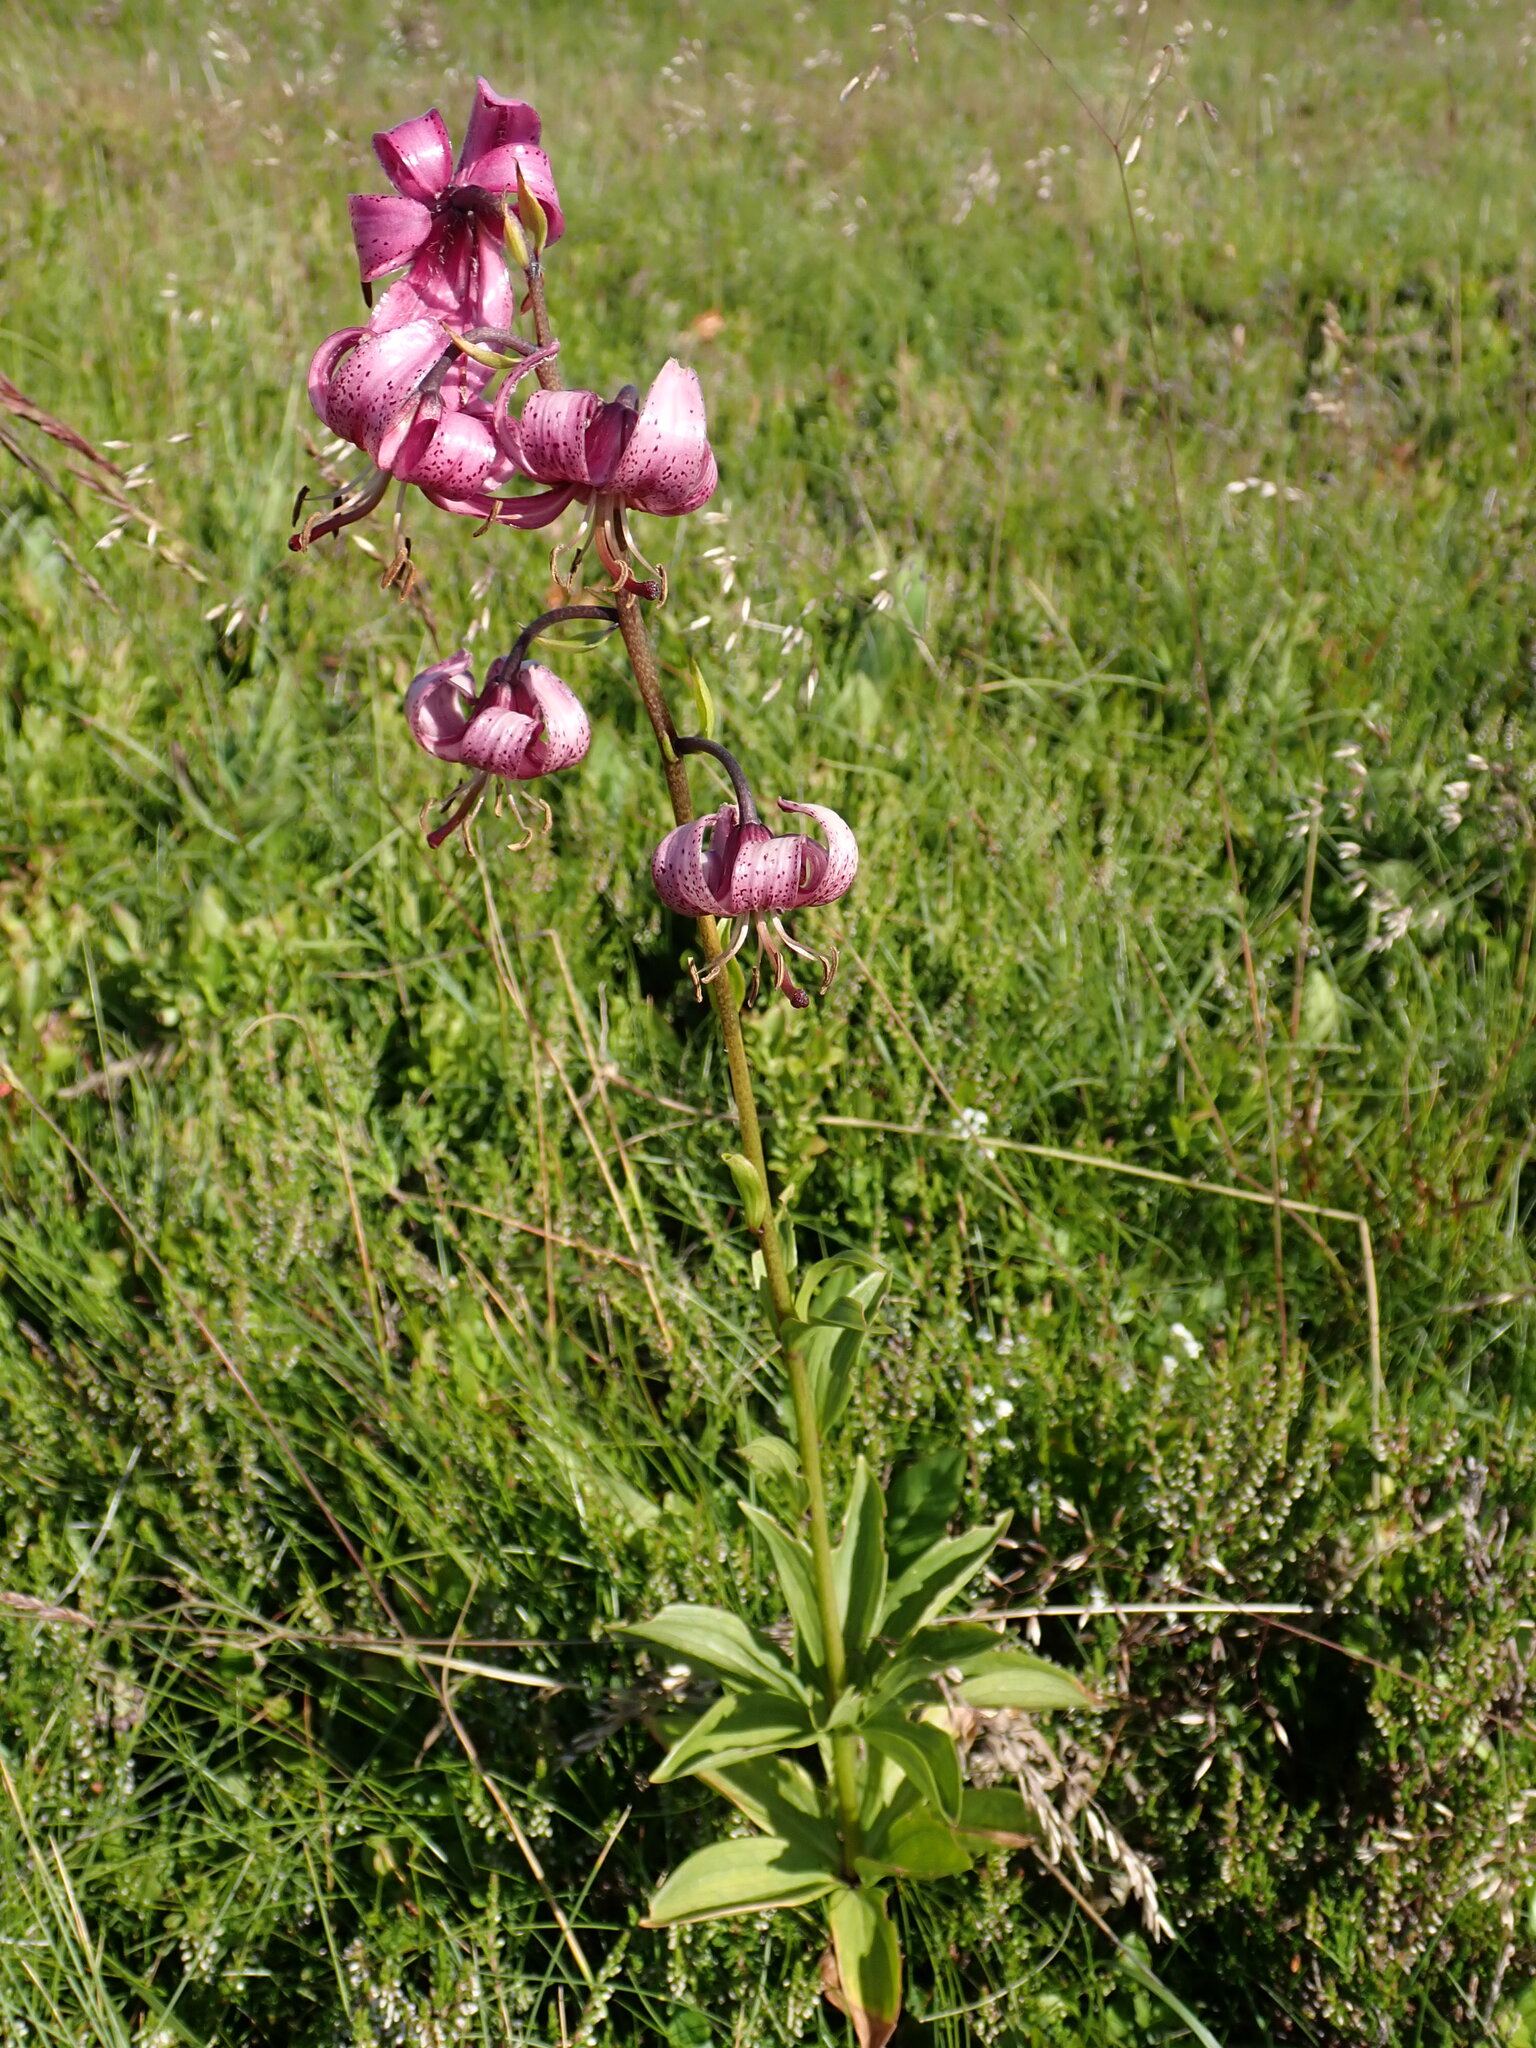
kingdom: Plantae
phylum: Tracheophyta
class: Liliopsida
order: Liliales
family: Liliaceae
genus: Lilium
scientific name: Lilium martagon
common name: Martagon lily
